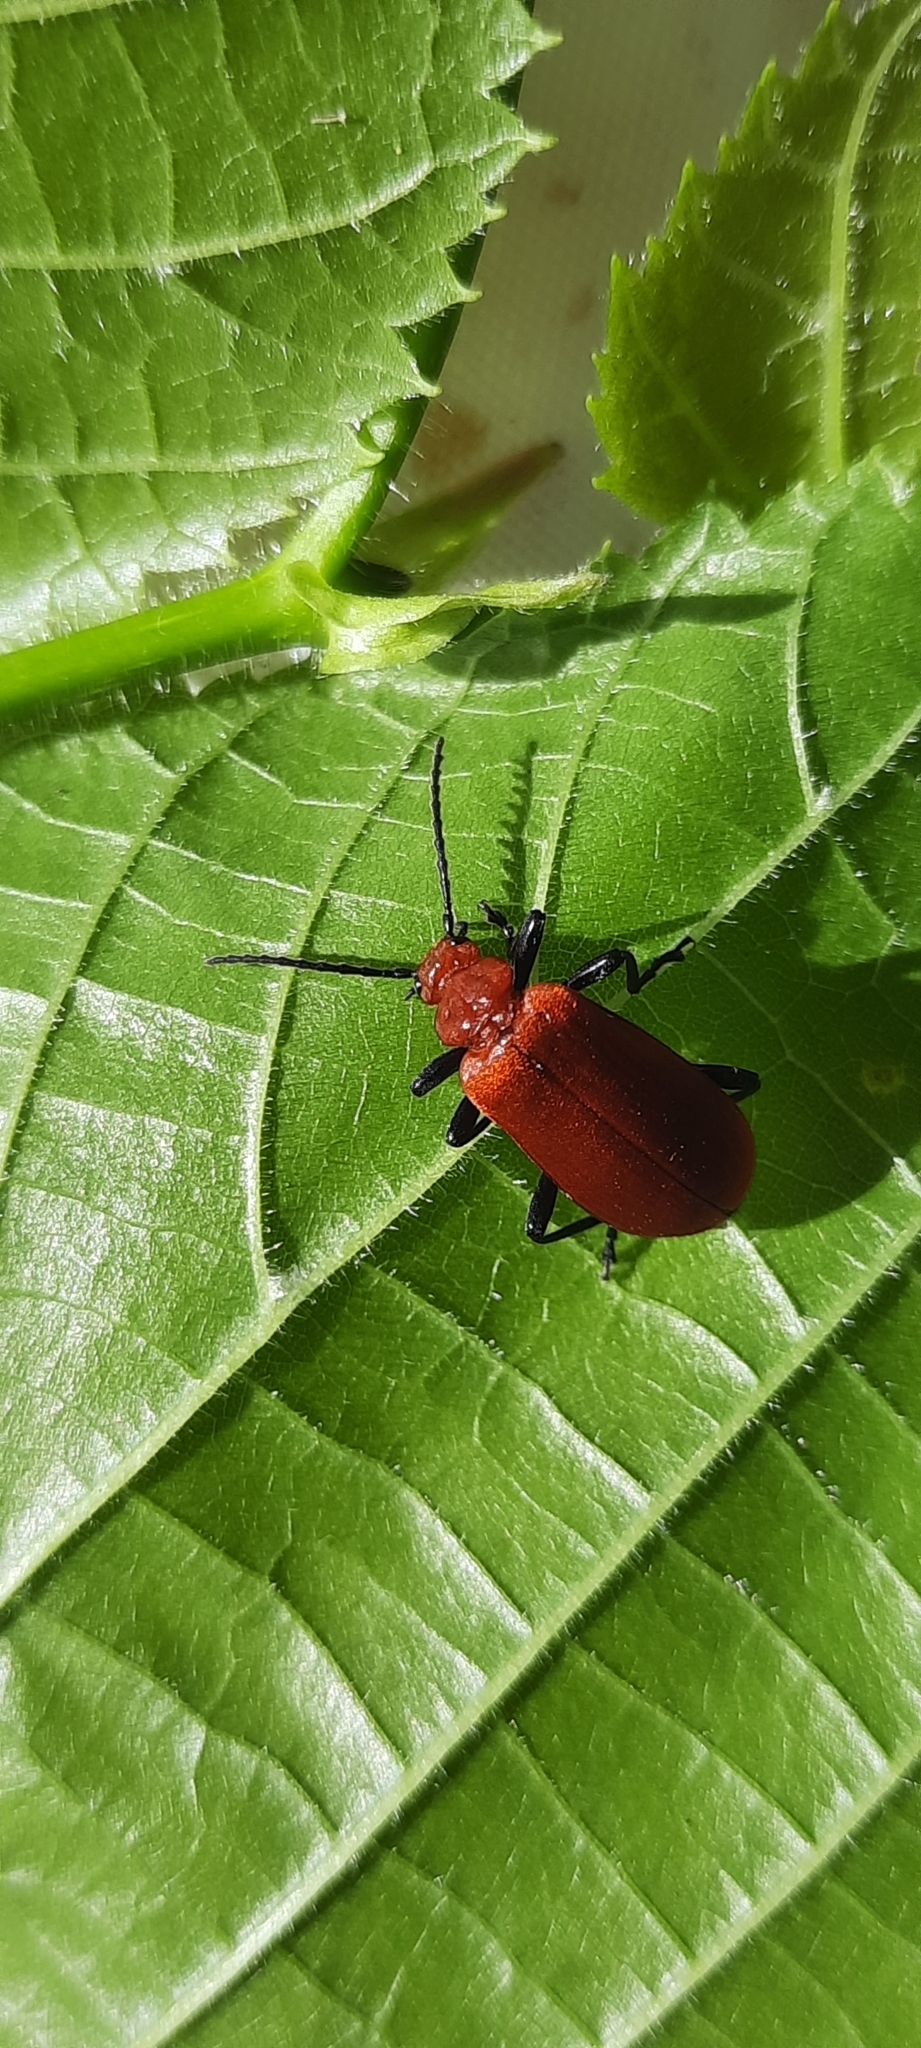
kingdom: Animalia
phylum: Arthropoda
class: Insecta
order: Coleoptera
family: Pyrochroidae
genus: Pyrochroa
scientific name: Pyrochroa serraticornis
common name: Red-headed cardinal beetle
